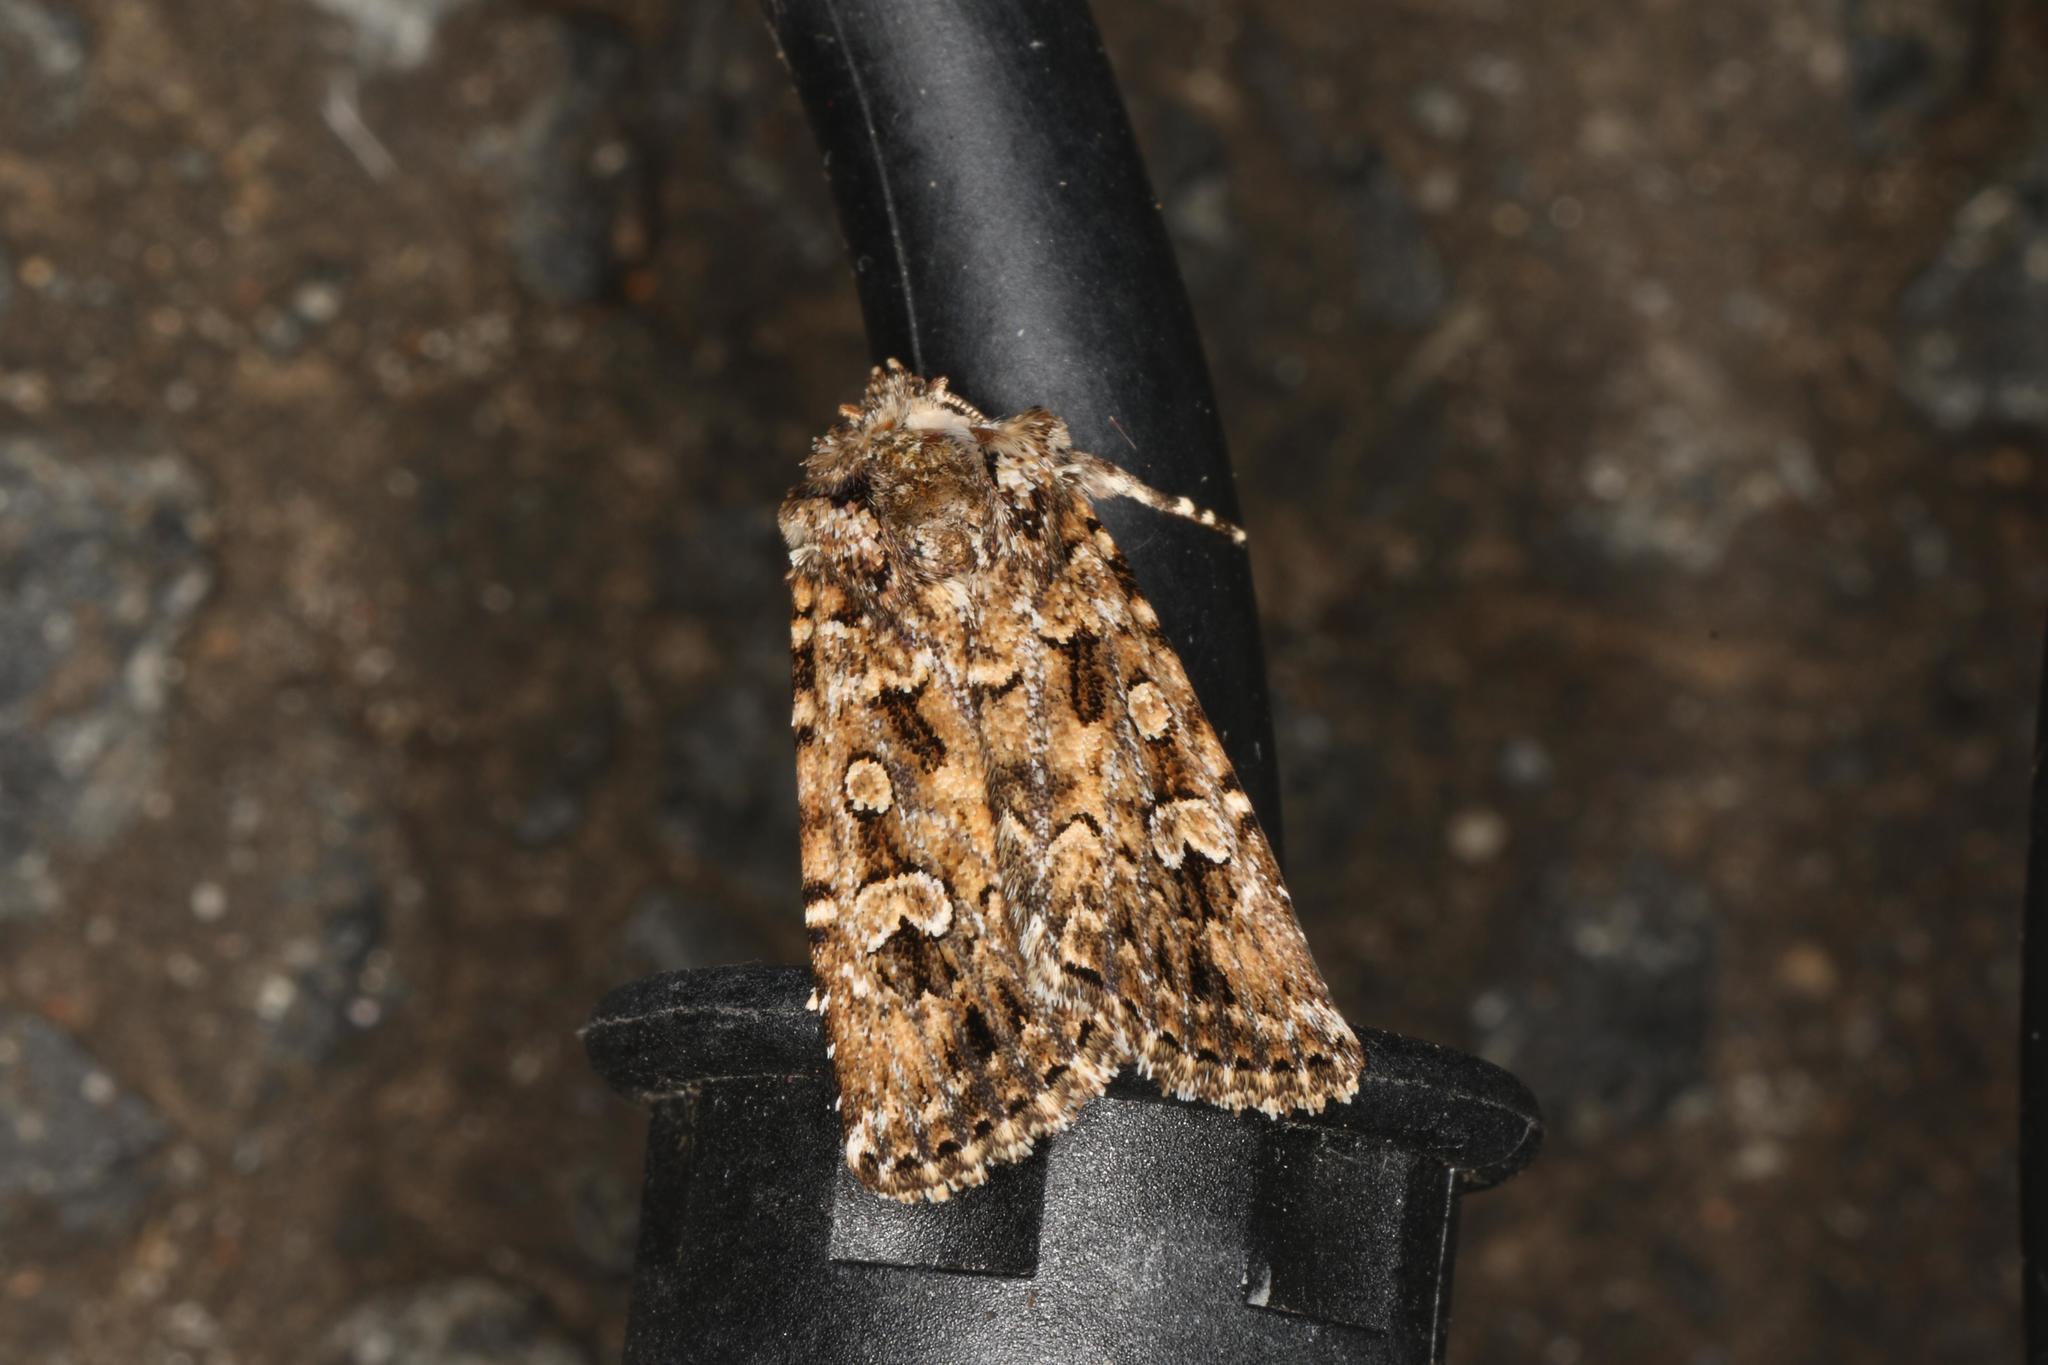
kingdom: Animalia
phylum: Arthropoda
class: Insecta
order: Lepidoptera
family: Noctuidae
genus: Ectopatria
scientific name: Ectopatria horologa
